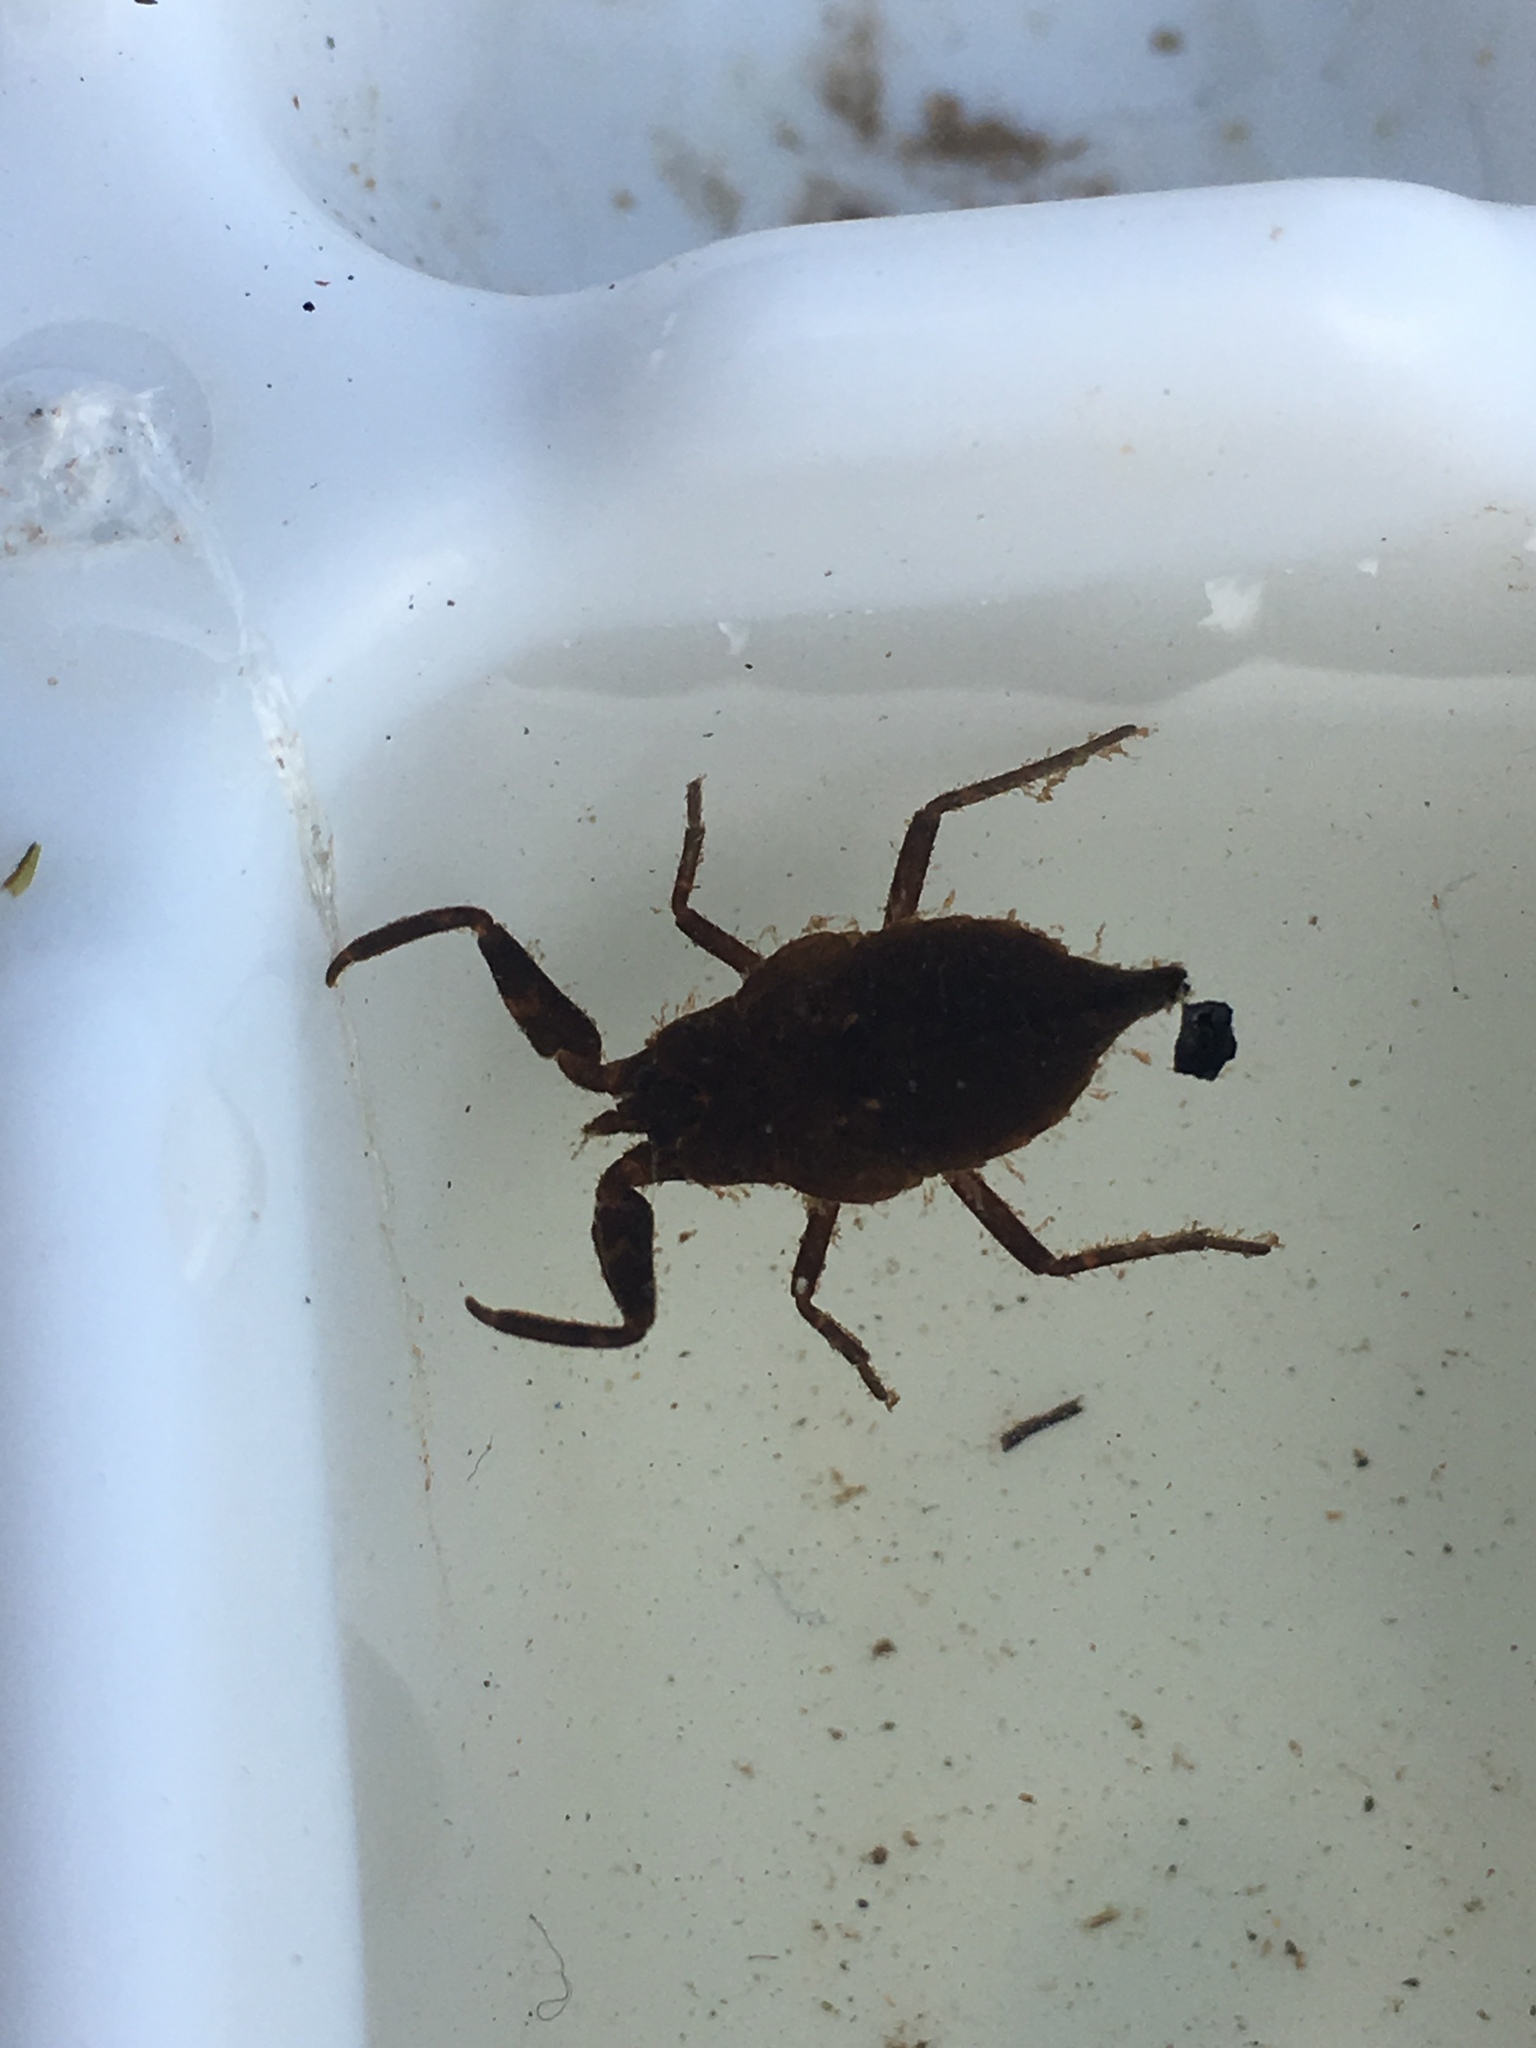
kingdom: Animalia
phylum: Arthropoda
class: Insecta
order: Hemiptera
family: Nepidae
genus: Nepa
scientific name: Nepa apiculata
